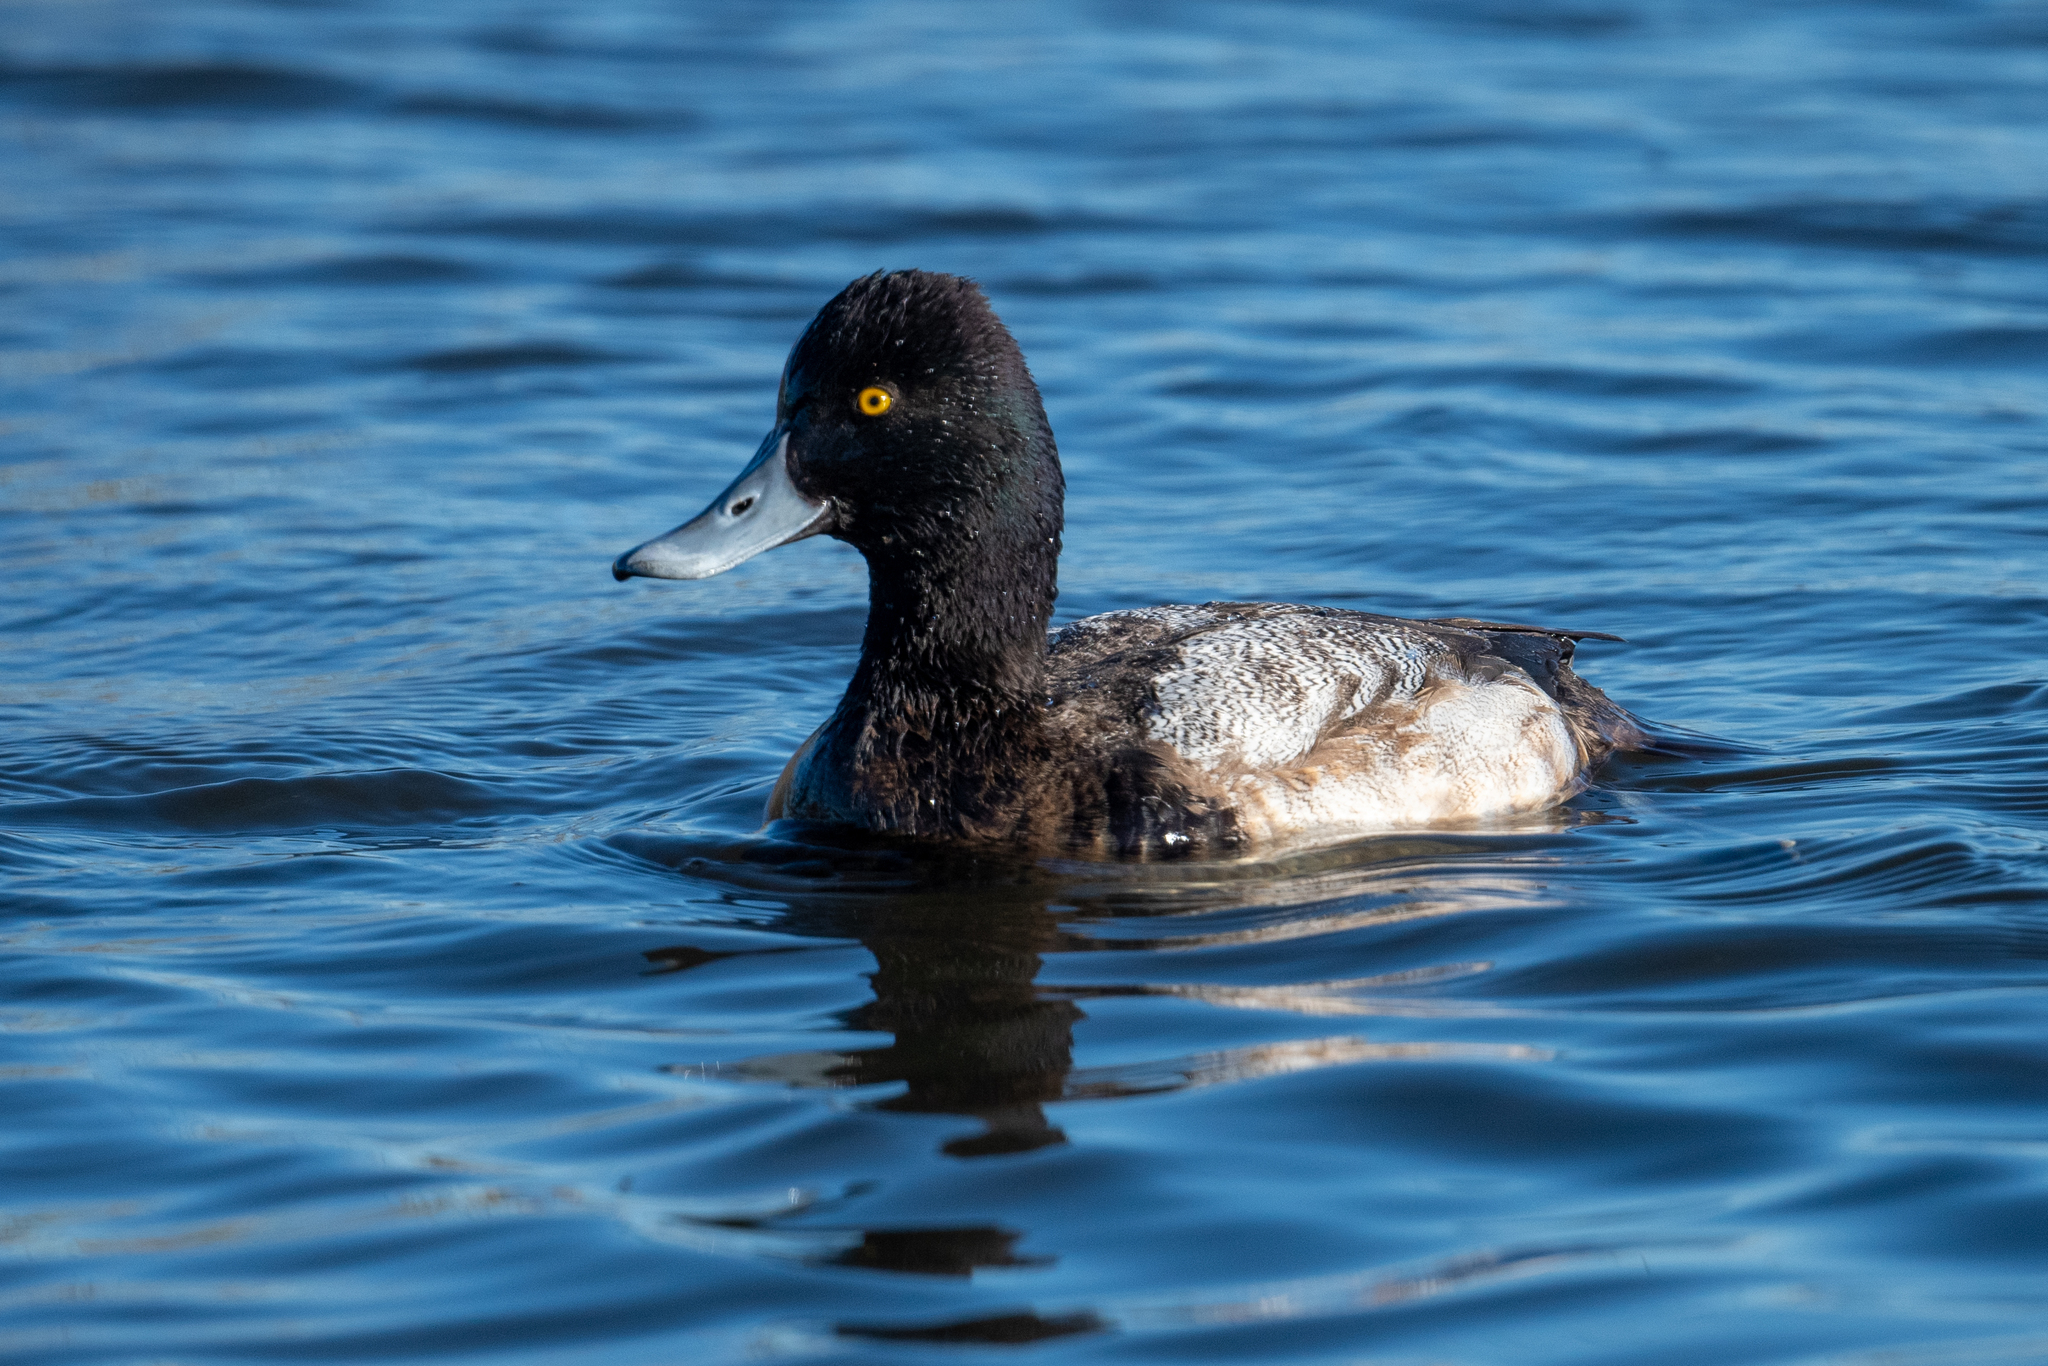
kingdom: Animalia
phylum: Chordata
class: Aves
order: Anseriformes
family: Anatidae
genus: Aythya
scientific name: Aythya affinis
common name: Lesser scaup
